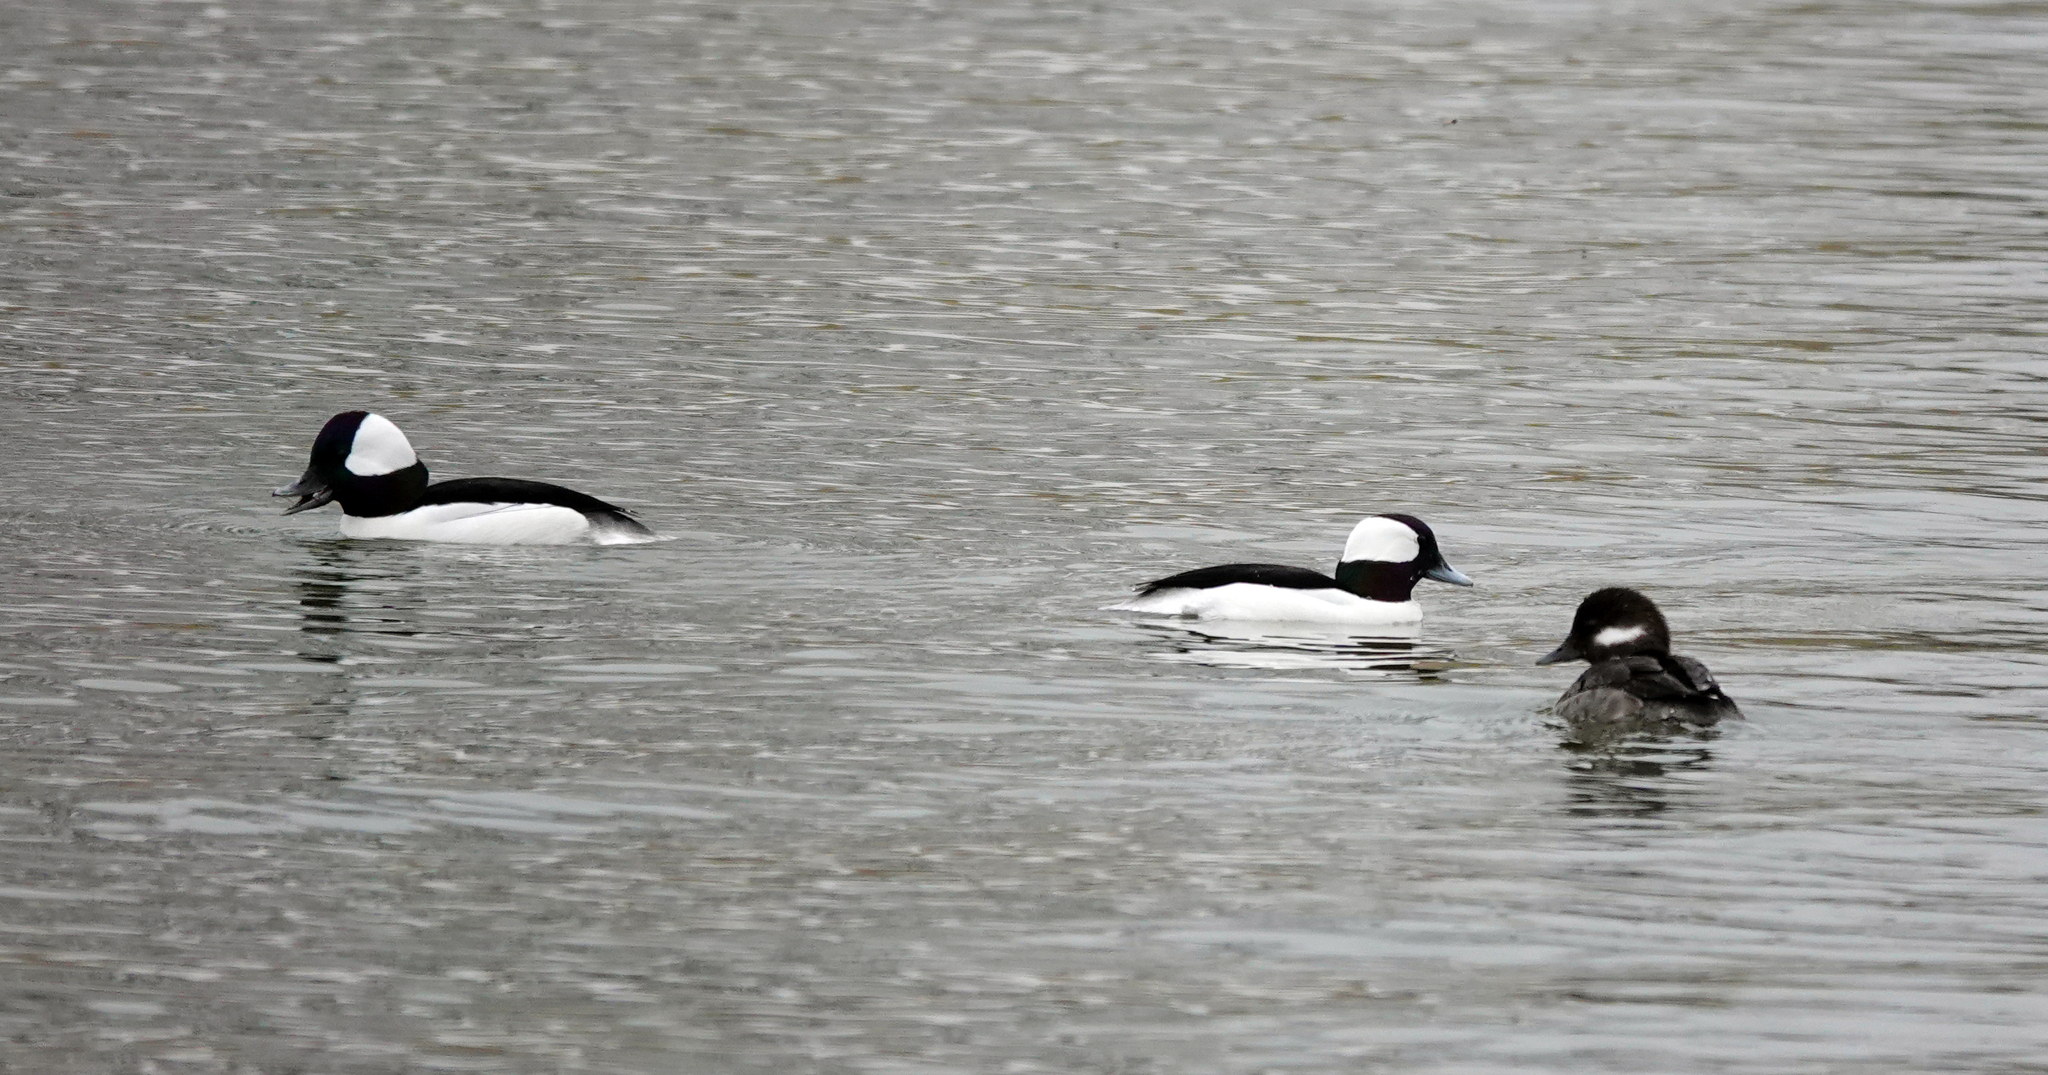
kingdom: Animalia
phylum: Chordata
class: Aves
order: Anseriformes
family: Anatidae
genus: Bucephala
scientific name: Bucephala albeola
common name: Bufflehead
